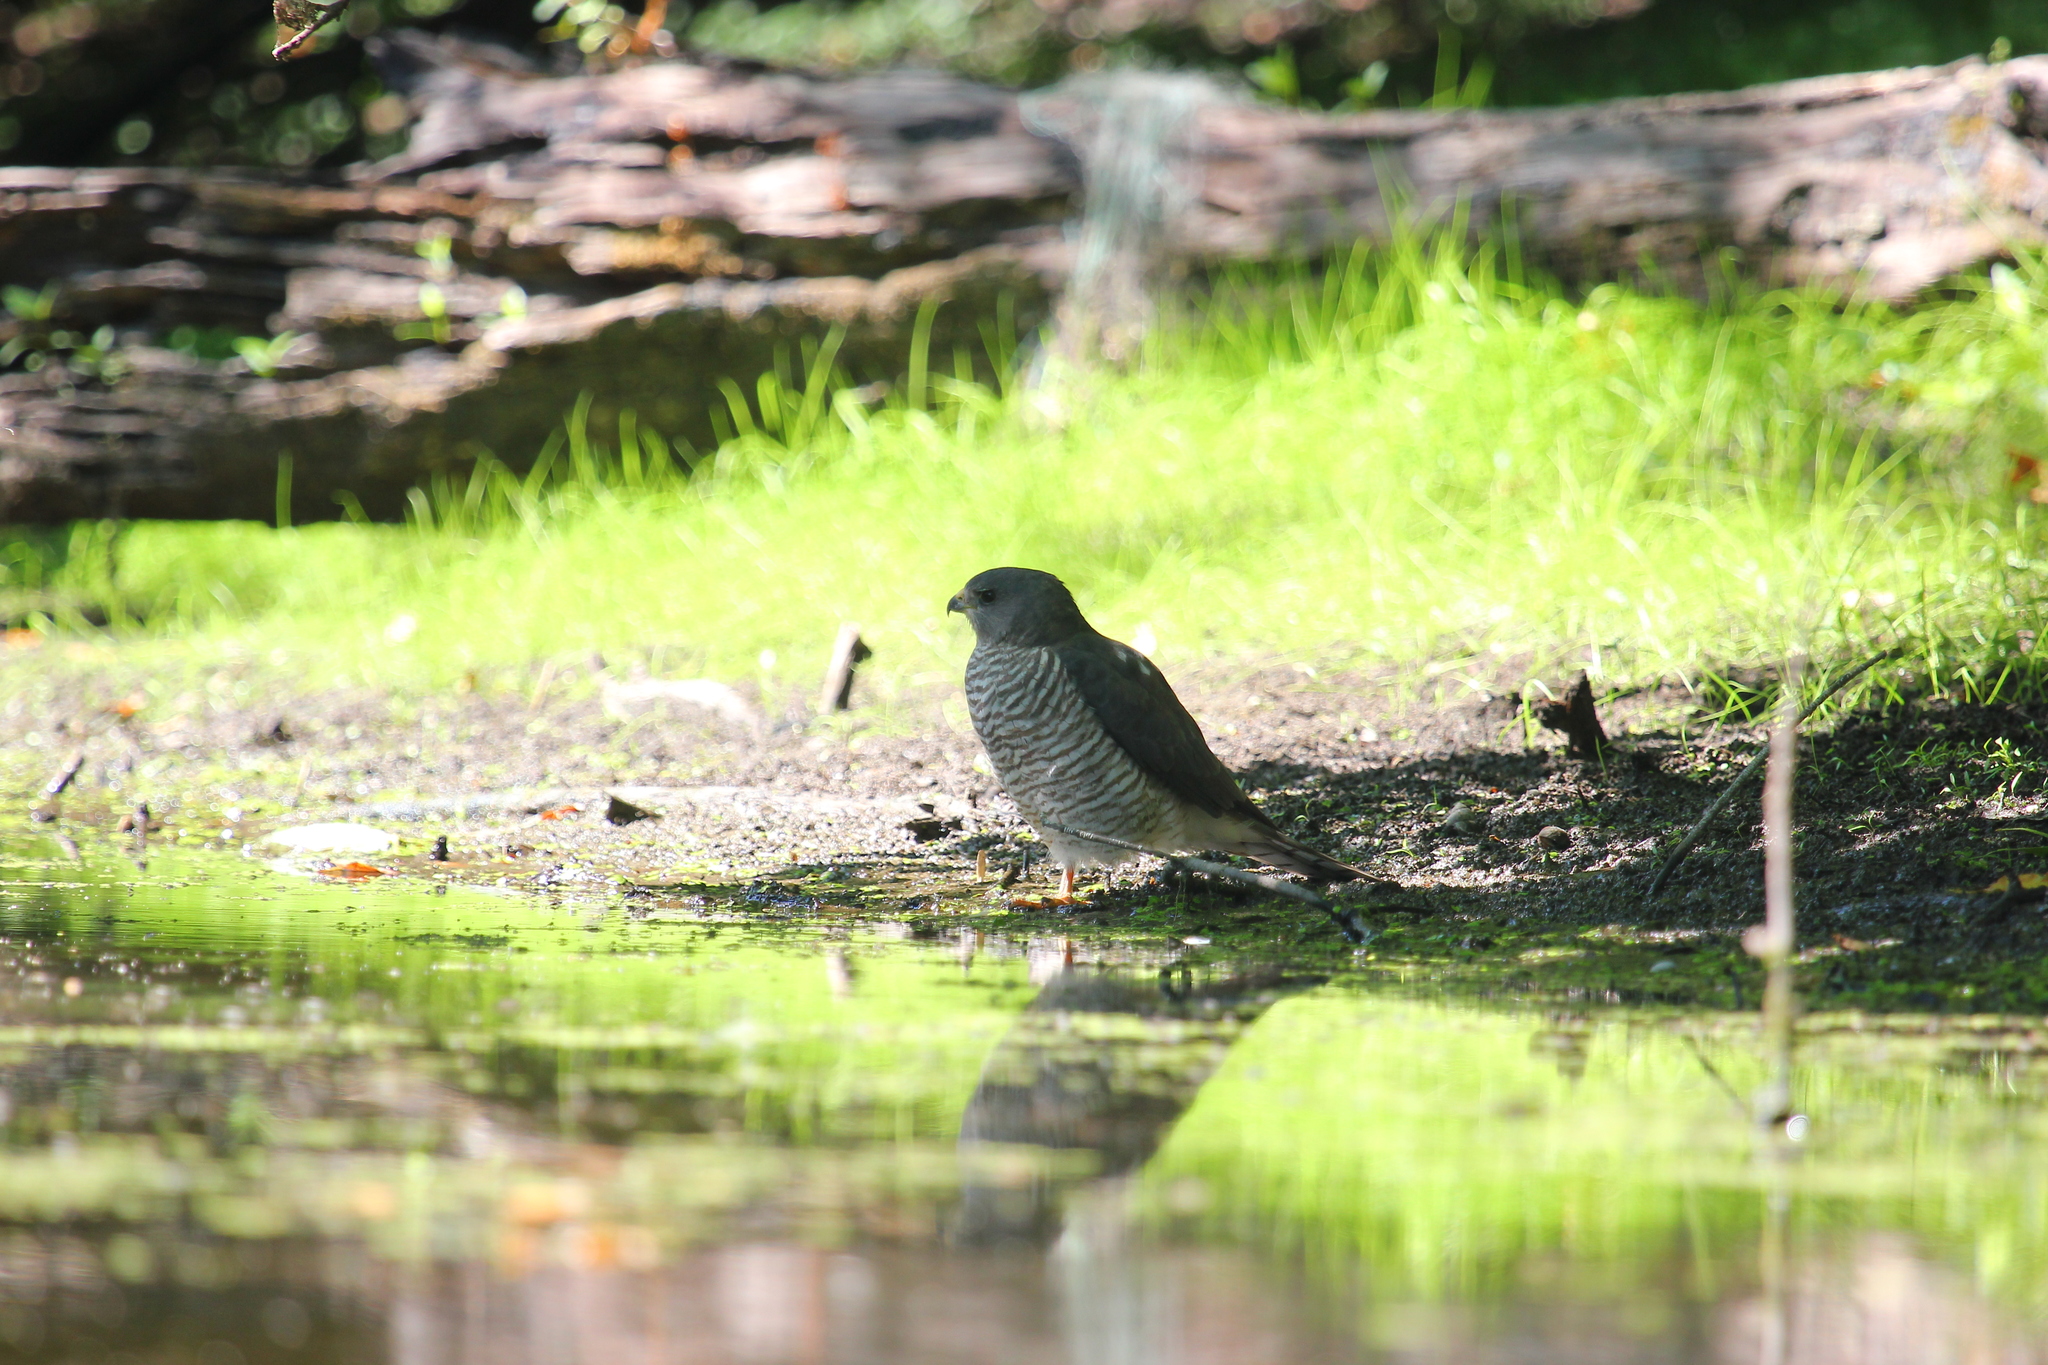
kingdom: Animalia
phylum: Chordata
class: Aves
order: Accipitriformes
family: Accipitridae
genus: Accipiter
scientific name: Accipiter brevipes
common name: Levant sparrowhawk
